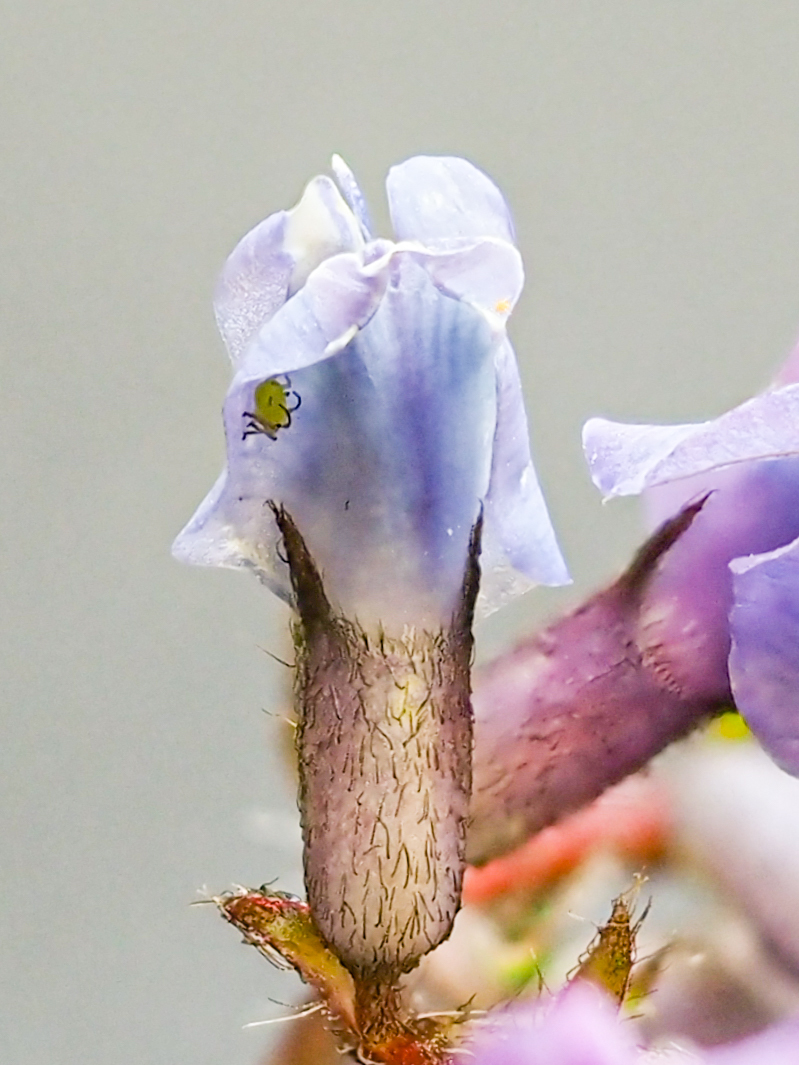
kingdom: Plantae
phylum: Tracheophyta
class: Magnoliopsida
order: Fabales
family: Fabaceae
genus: Oxytropis
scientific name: Oxytropis montana
